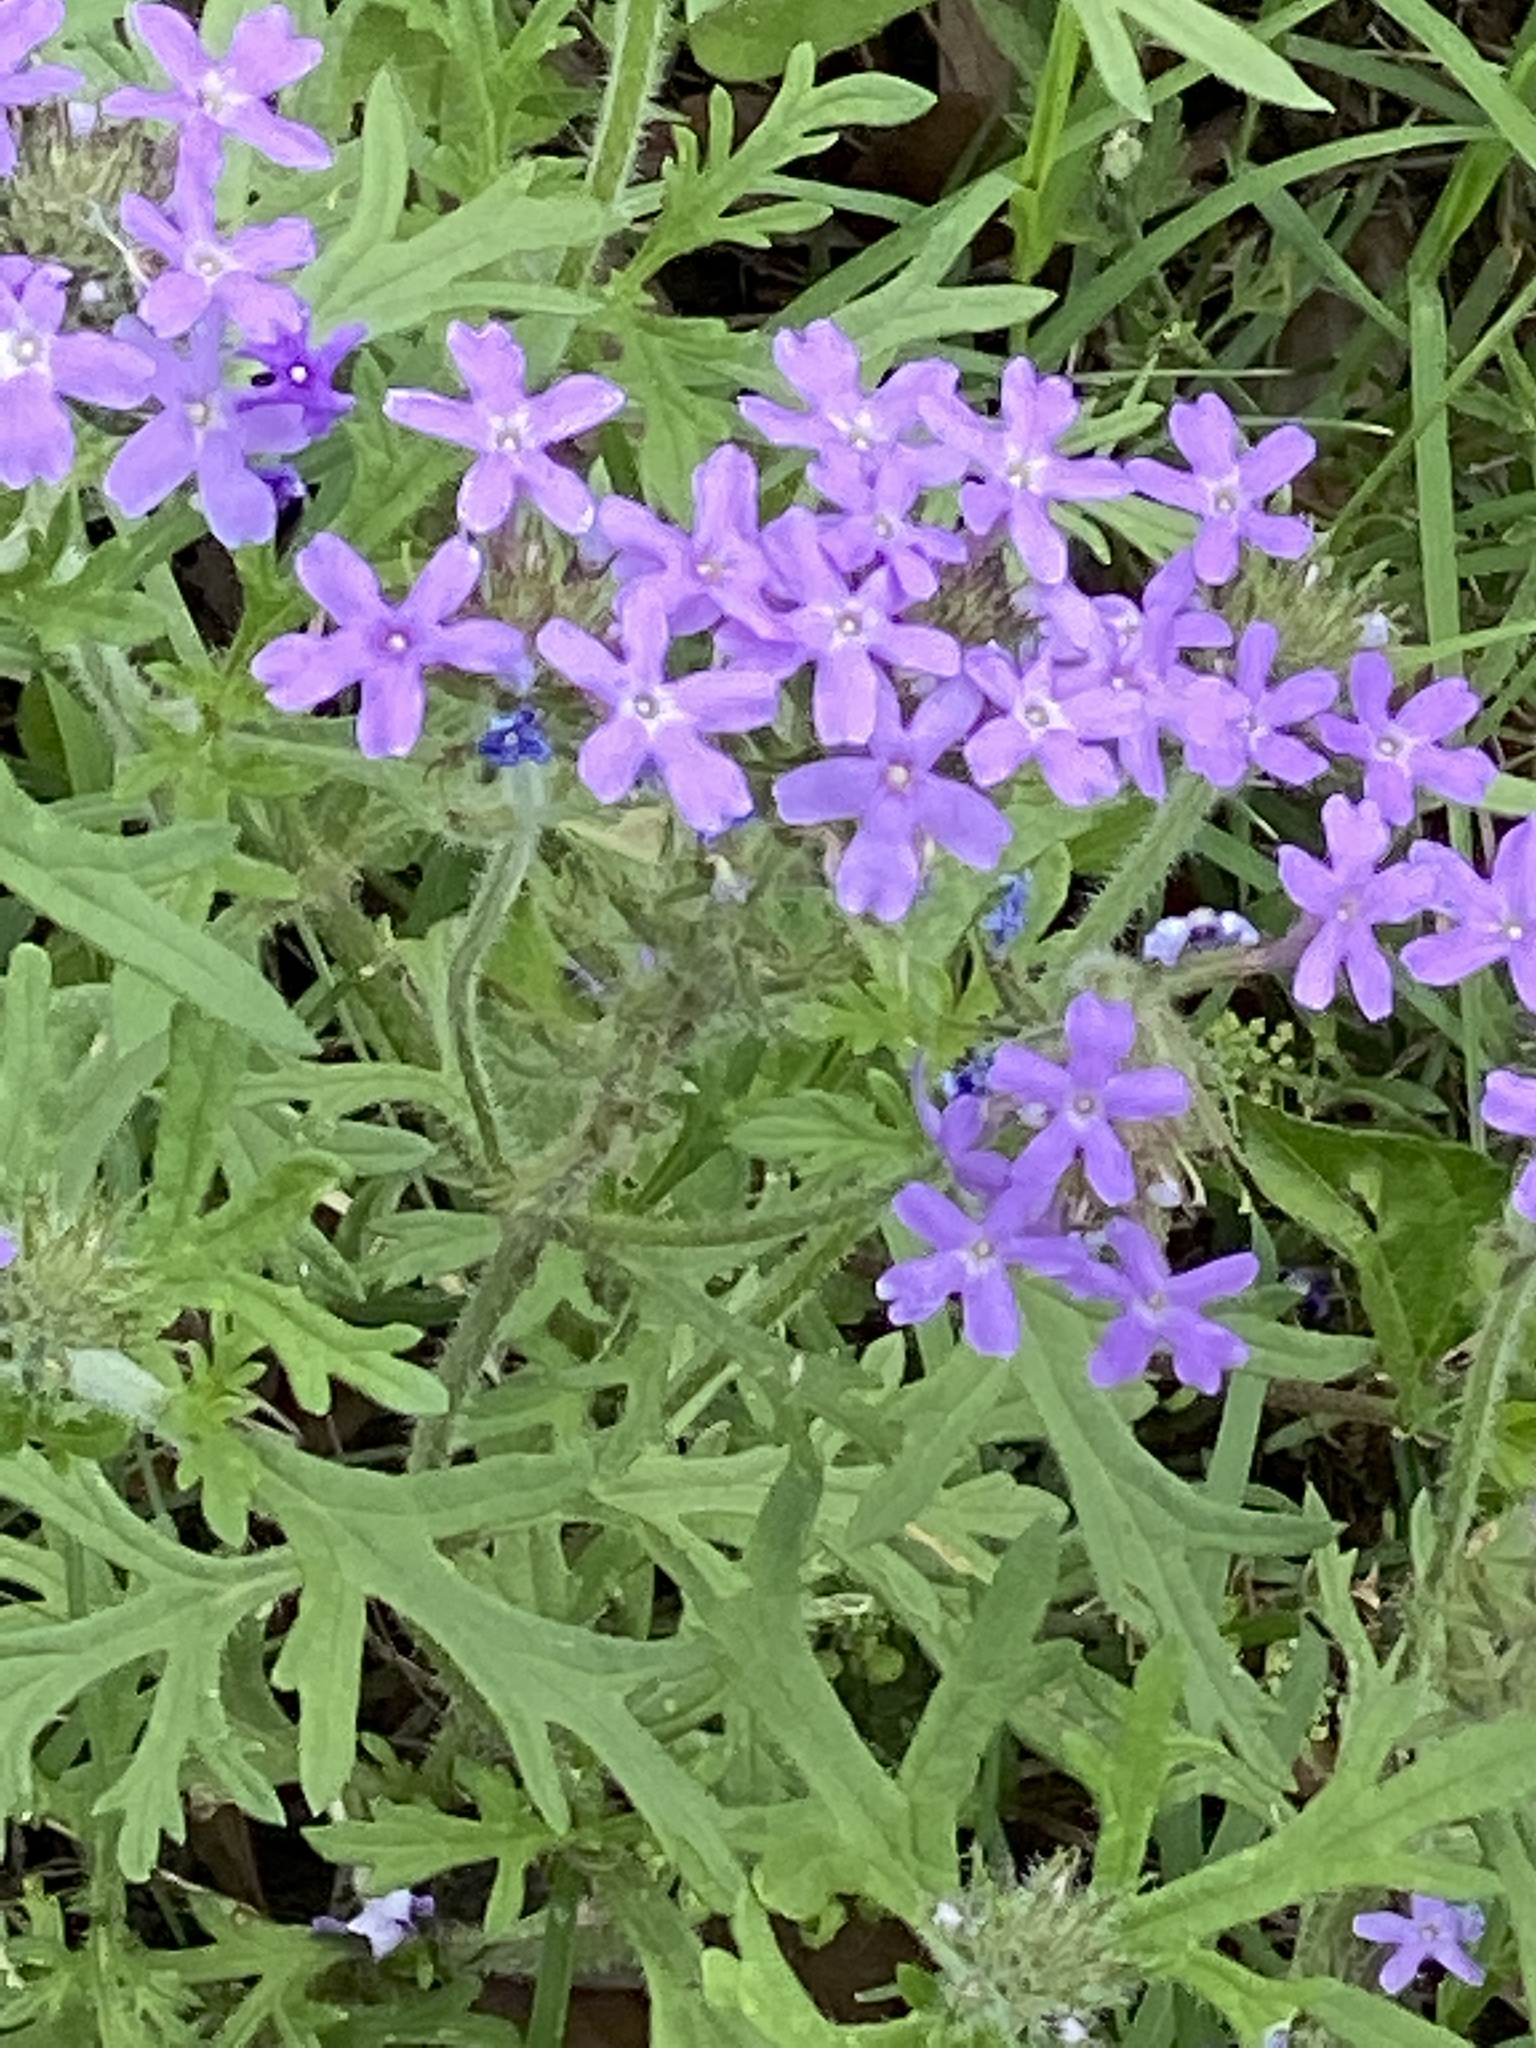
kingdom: Plantae
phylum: Tracheophyta
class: Magnoliopsida
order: Lamiales
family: Verbenaceae
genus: Verbena
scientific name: Verbena bipinnatifida
